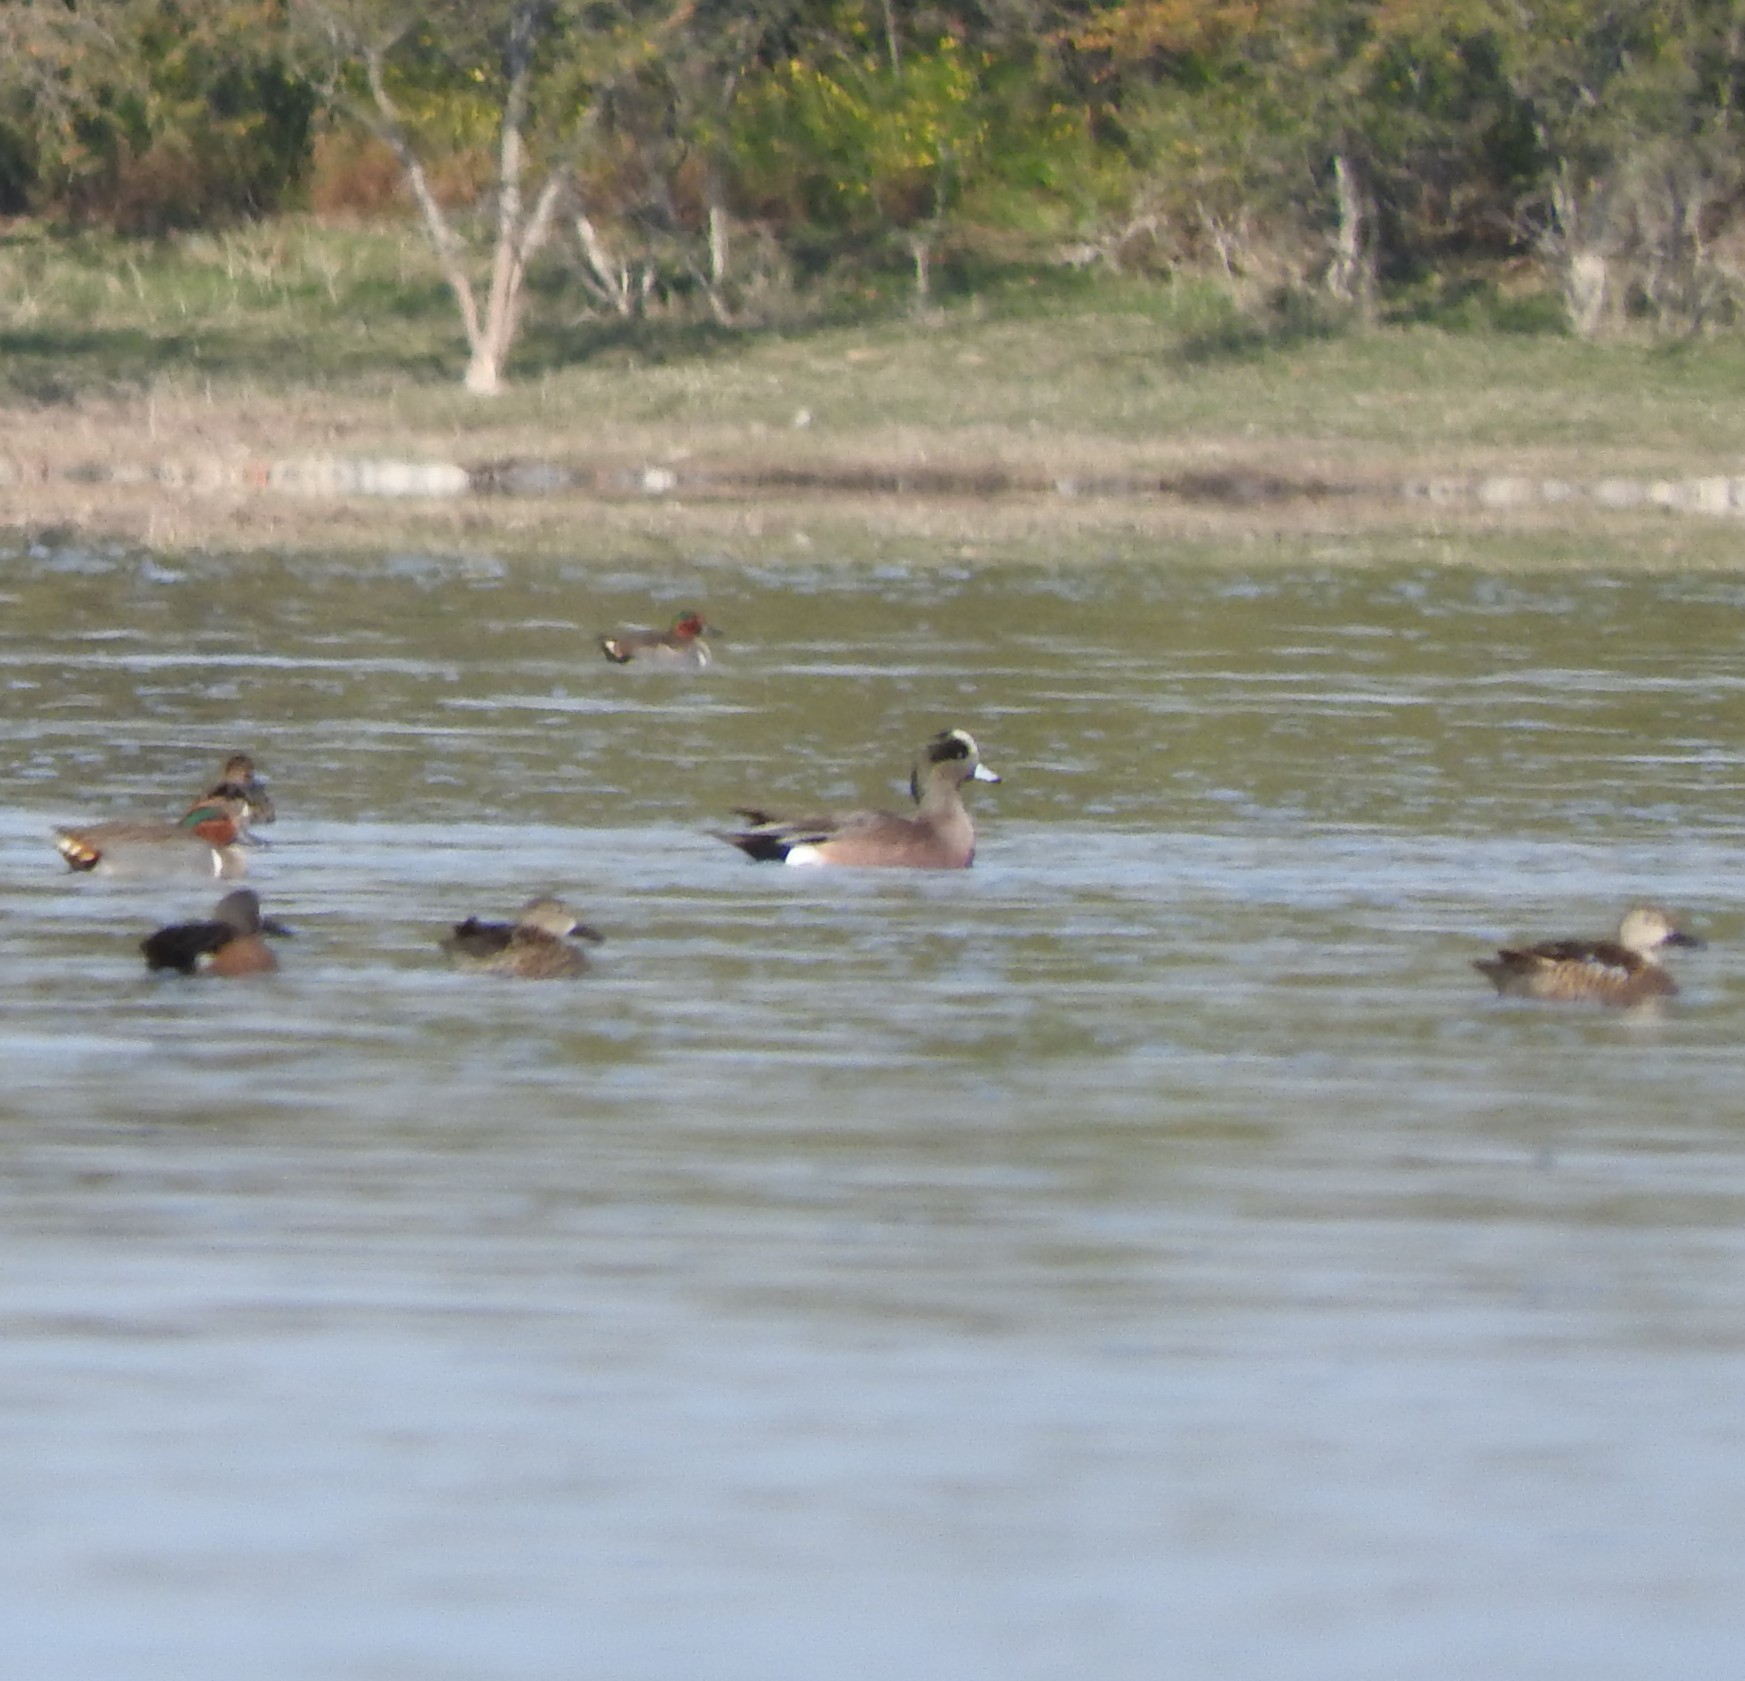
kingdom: Animalia
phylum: Chordata
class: Aves
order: Anseriformes
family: Anatidae
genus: Mareca
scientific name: Mareca americana
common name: American wigeon
